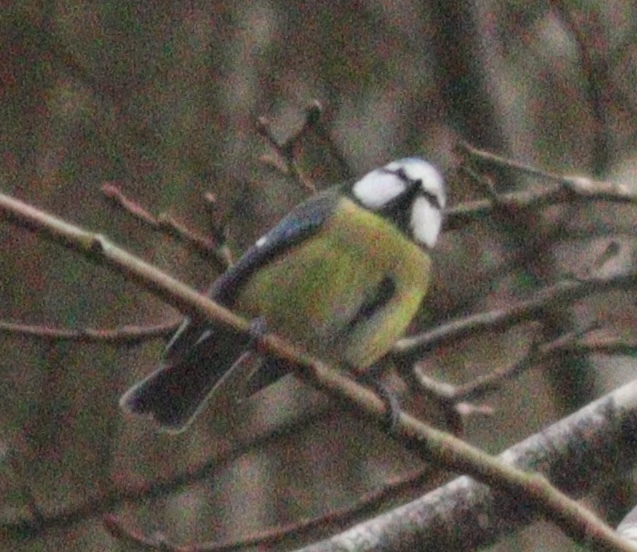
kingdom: Animalia
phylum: Chordata
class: Aves
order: Passeriformes
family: Paridae
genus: Cyanistes
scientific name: Cyanistes caeruleus
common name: Eurasian blue tit
